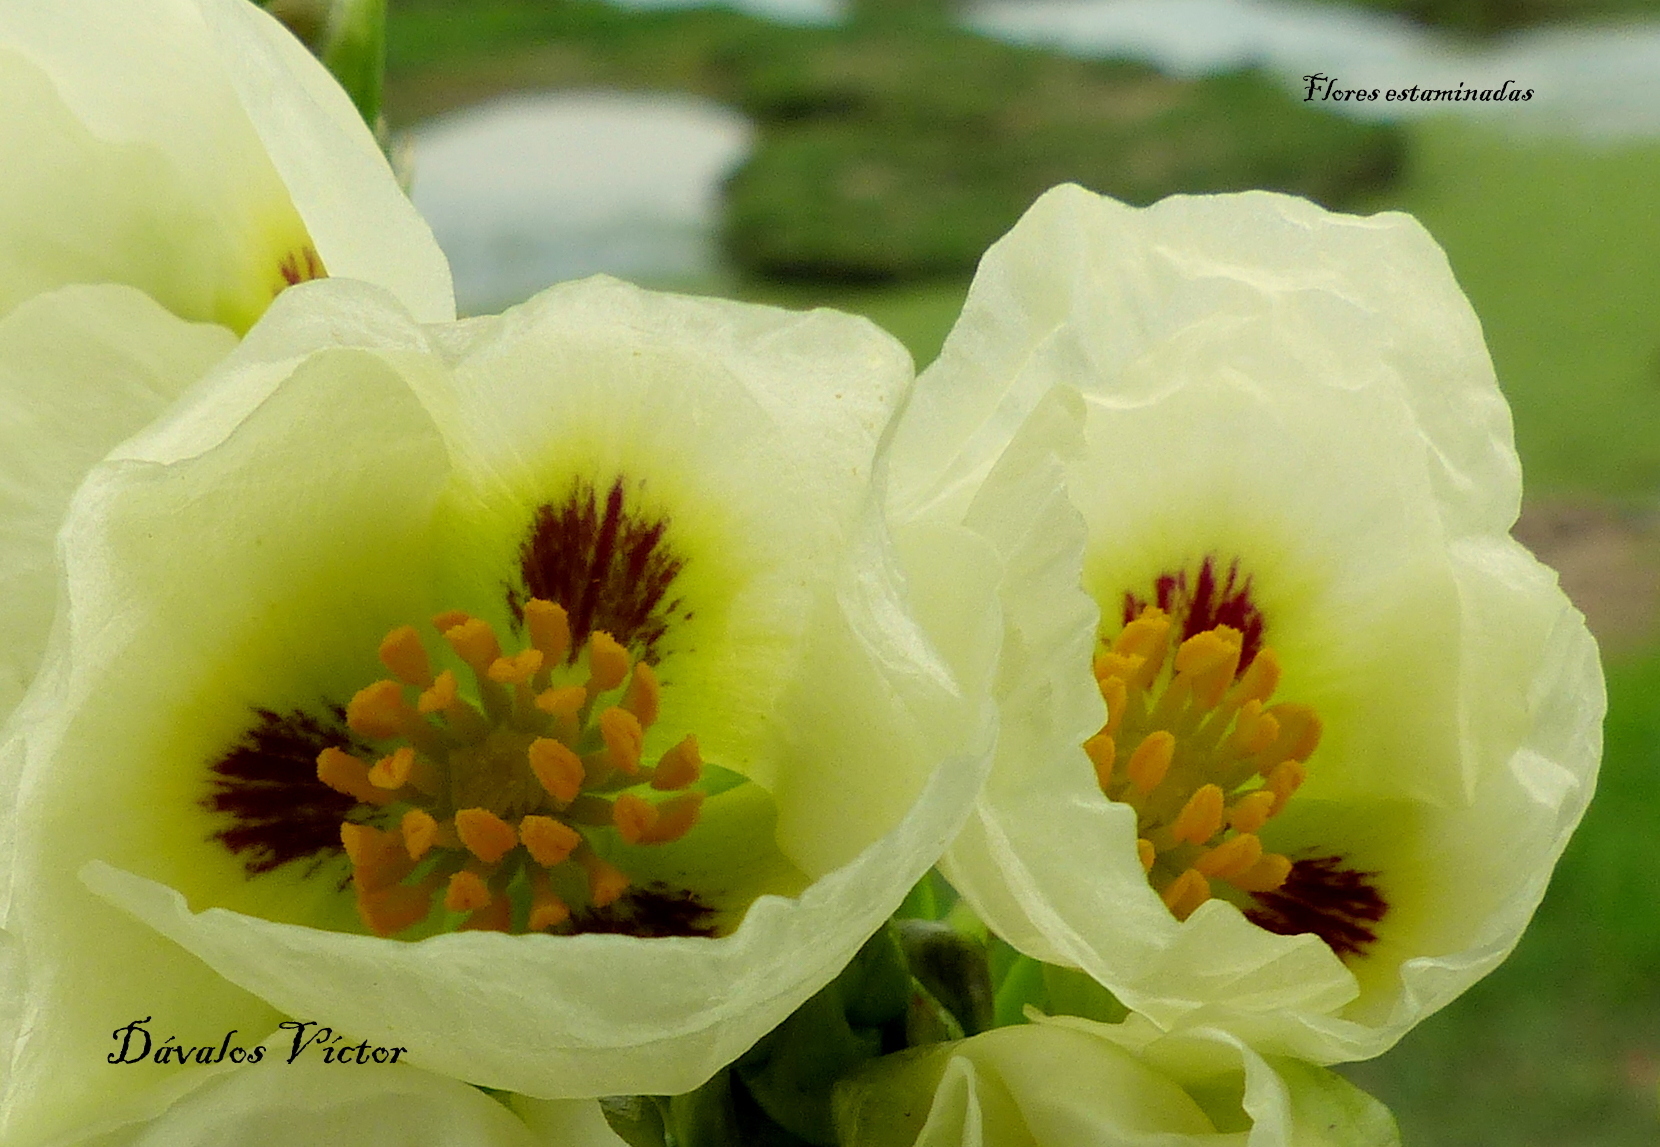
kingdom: Plantae
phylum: Tracheophyta
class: Liliopsida
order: Alismatales
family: Alismataceae
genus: Sagittaria
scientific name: Sagittaria montevidensis
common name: Giant arrowhead
